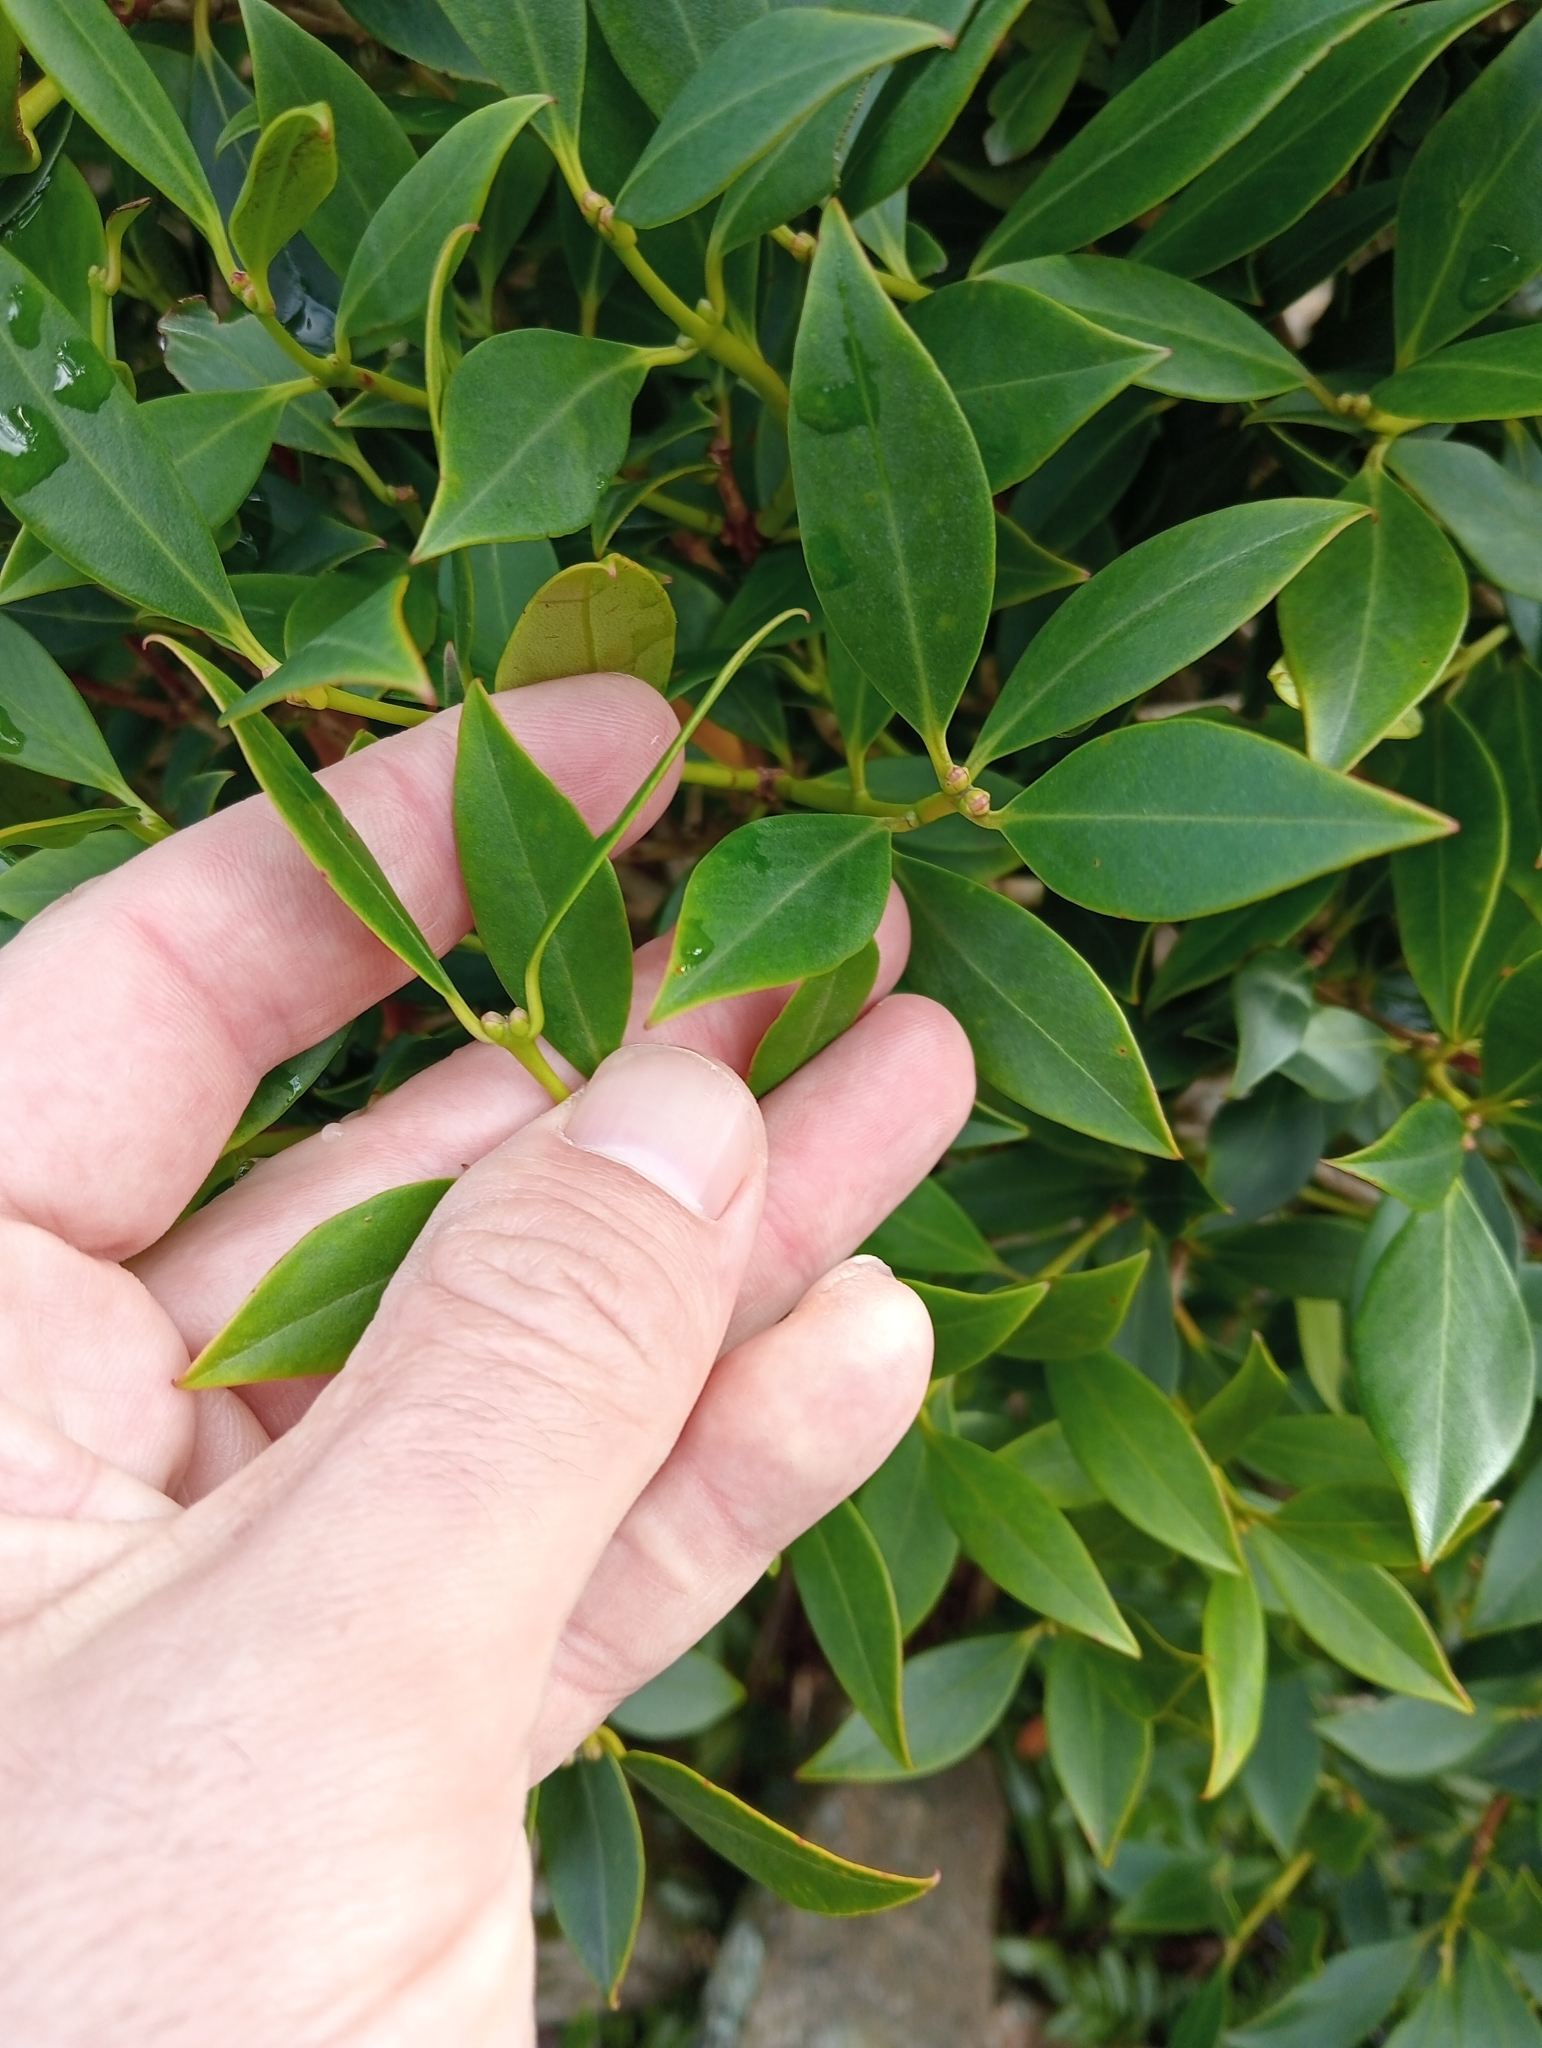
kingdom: Plantae
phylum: Tracheophyta
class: Magnoliopsida
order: Myrtales
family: Myrtaceae
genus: Metrosideros
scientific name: Metrosideros umbellata
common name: Southern rata
